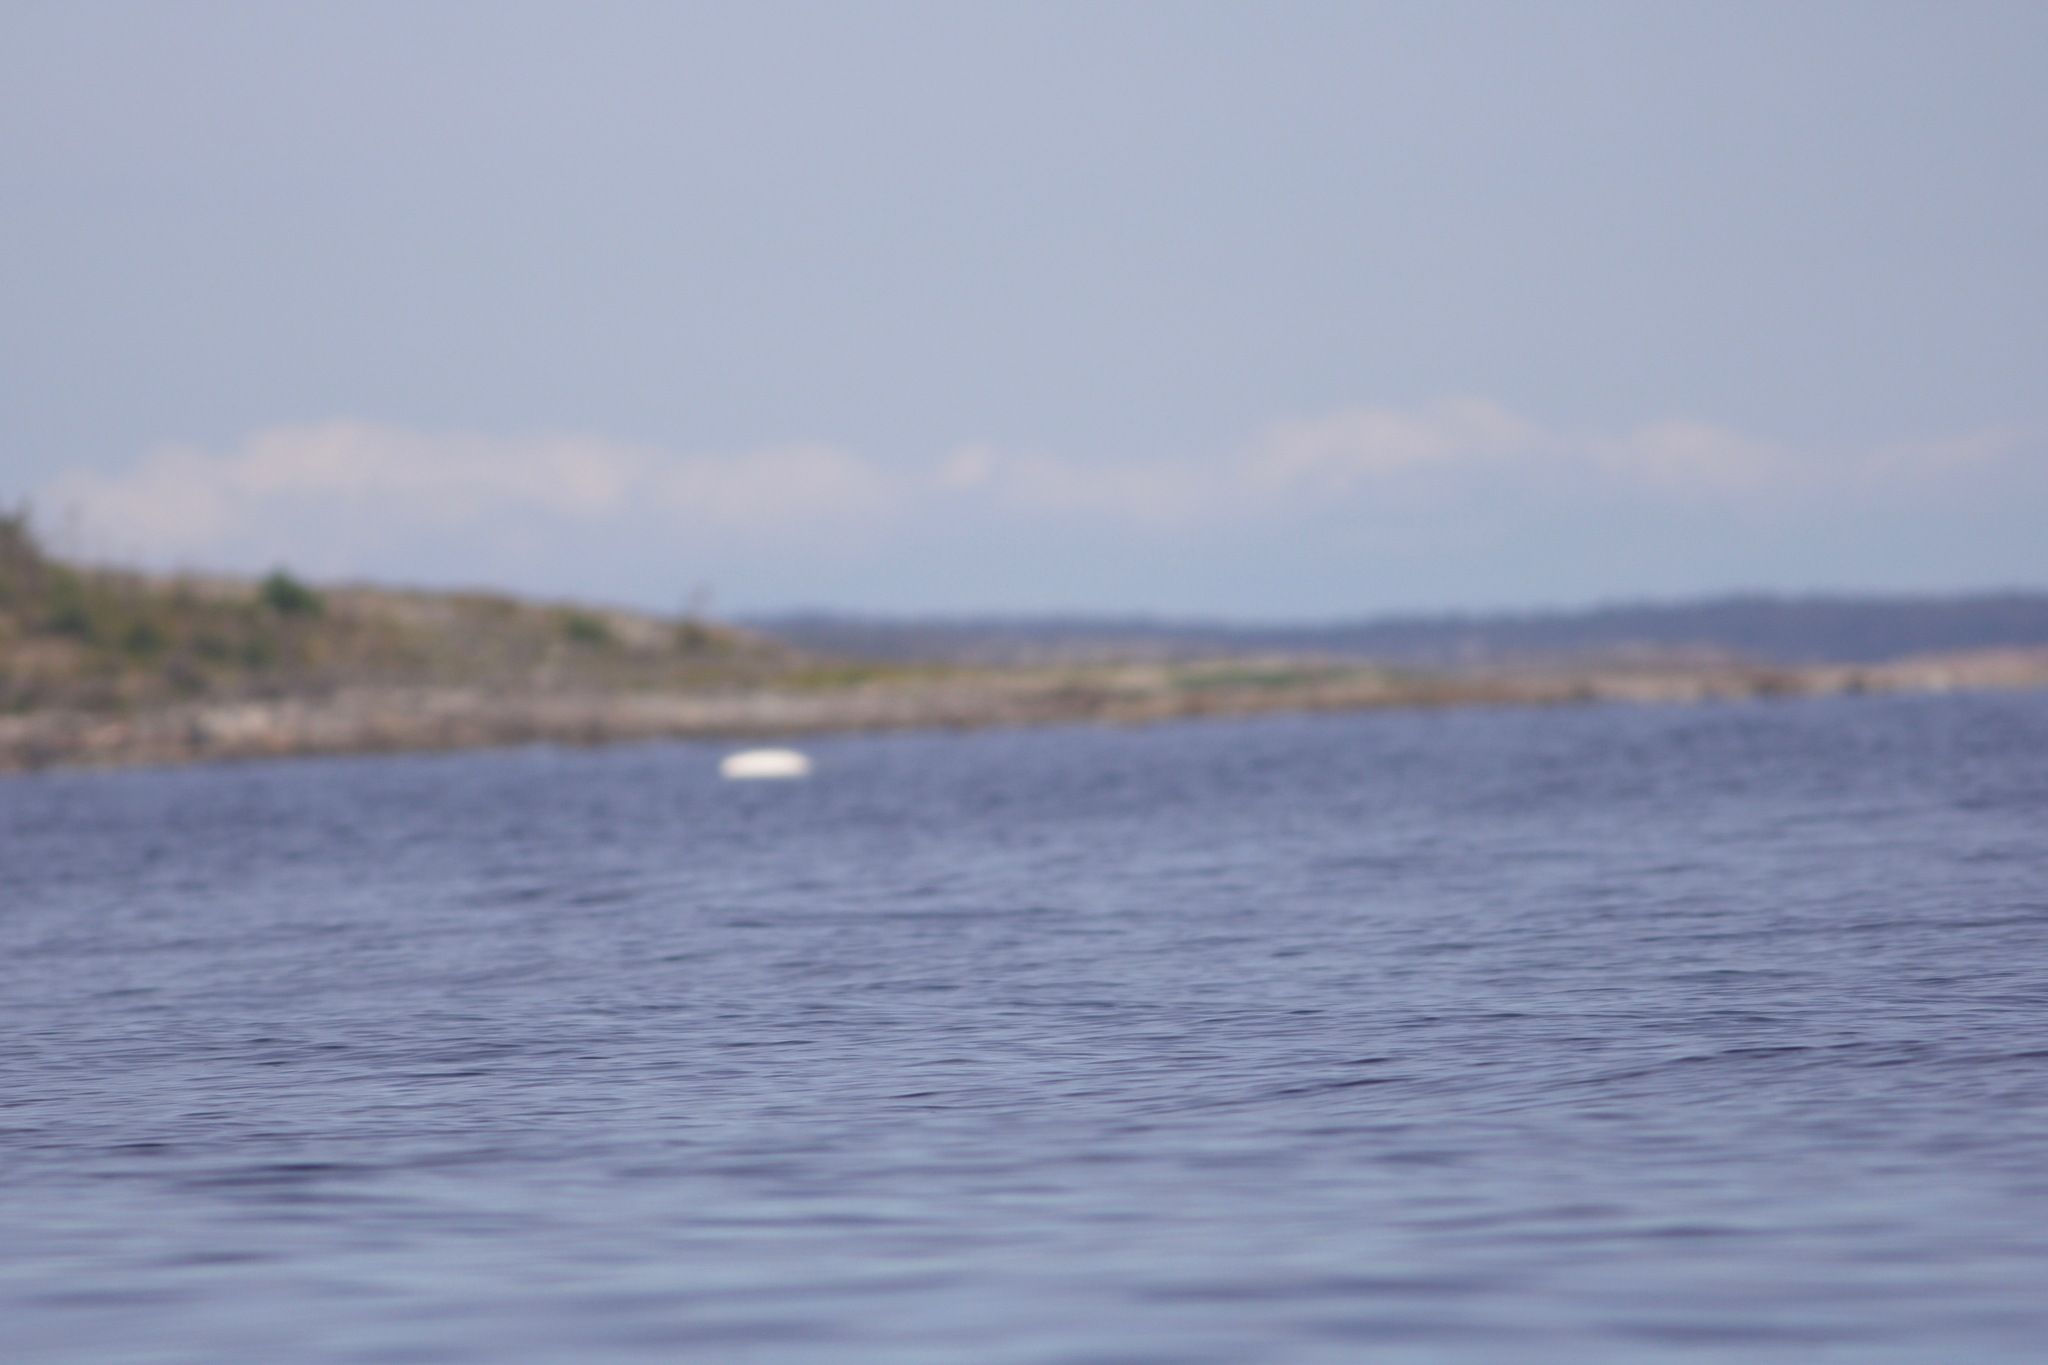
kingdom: Animalia
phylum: Chordata
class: Mammalia
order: Cetacea
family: Monodontidae
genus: Delphinapterus
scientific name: Delphinapterus leucas
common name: Beluga
